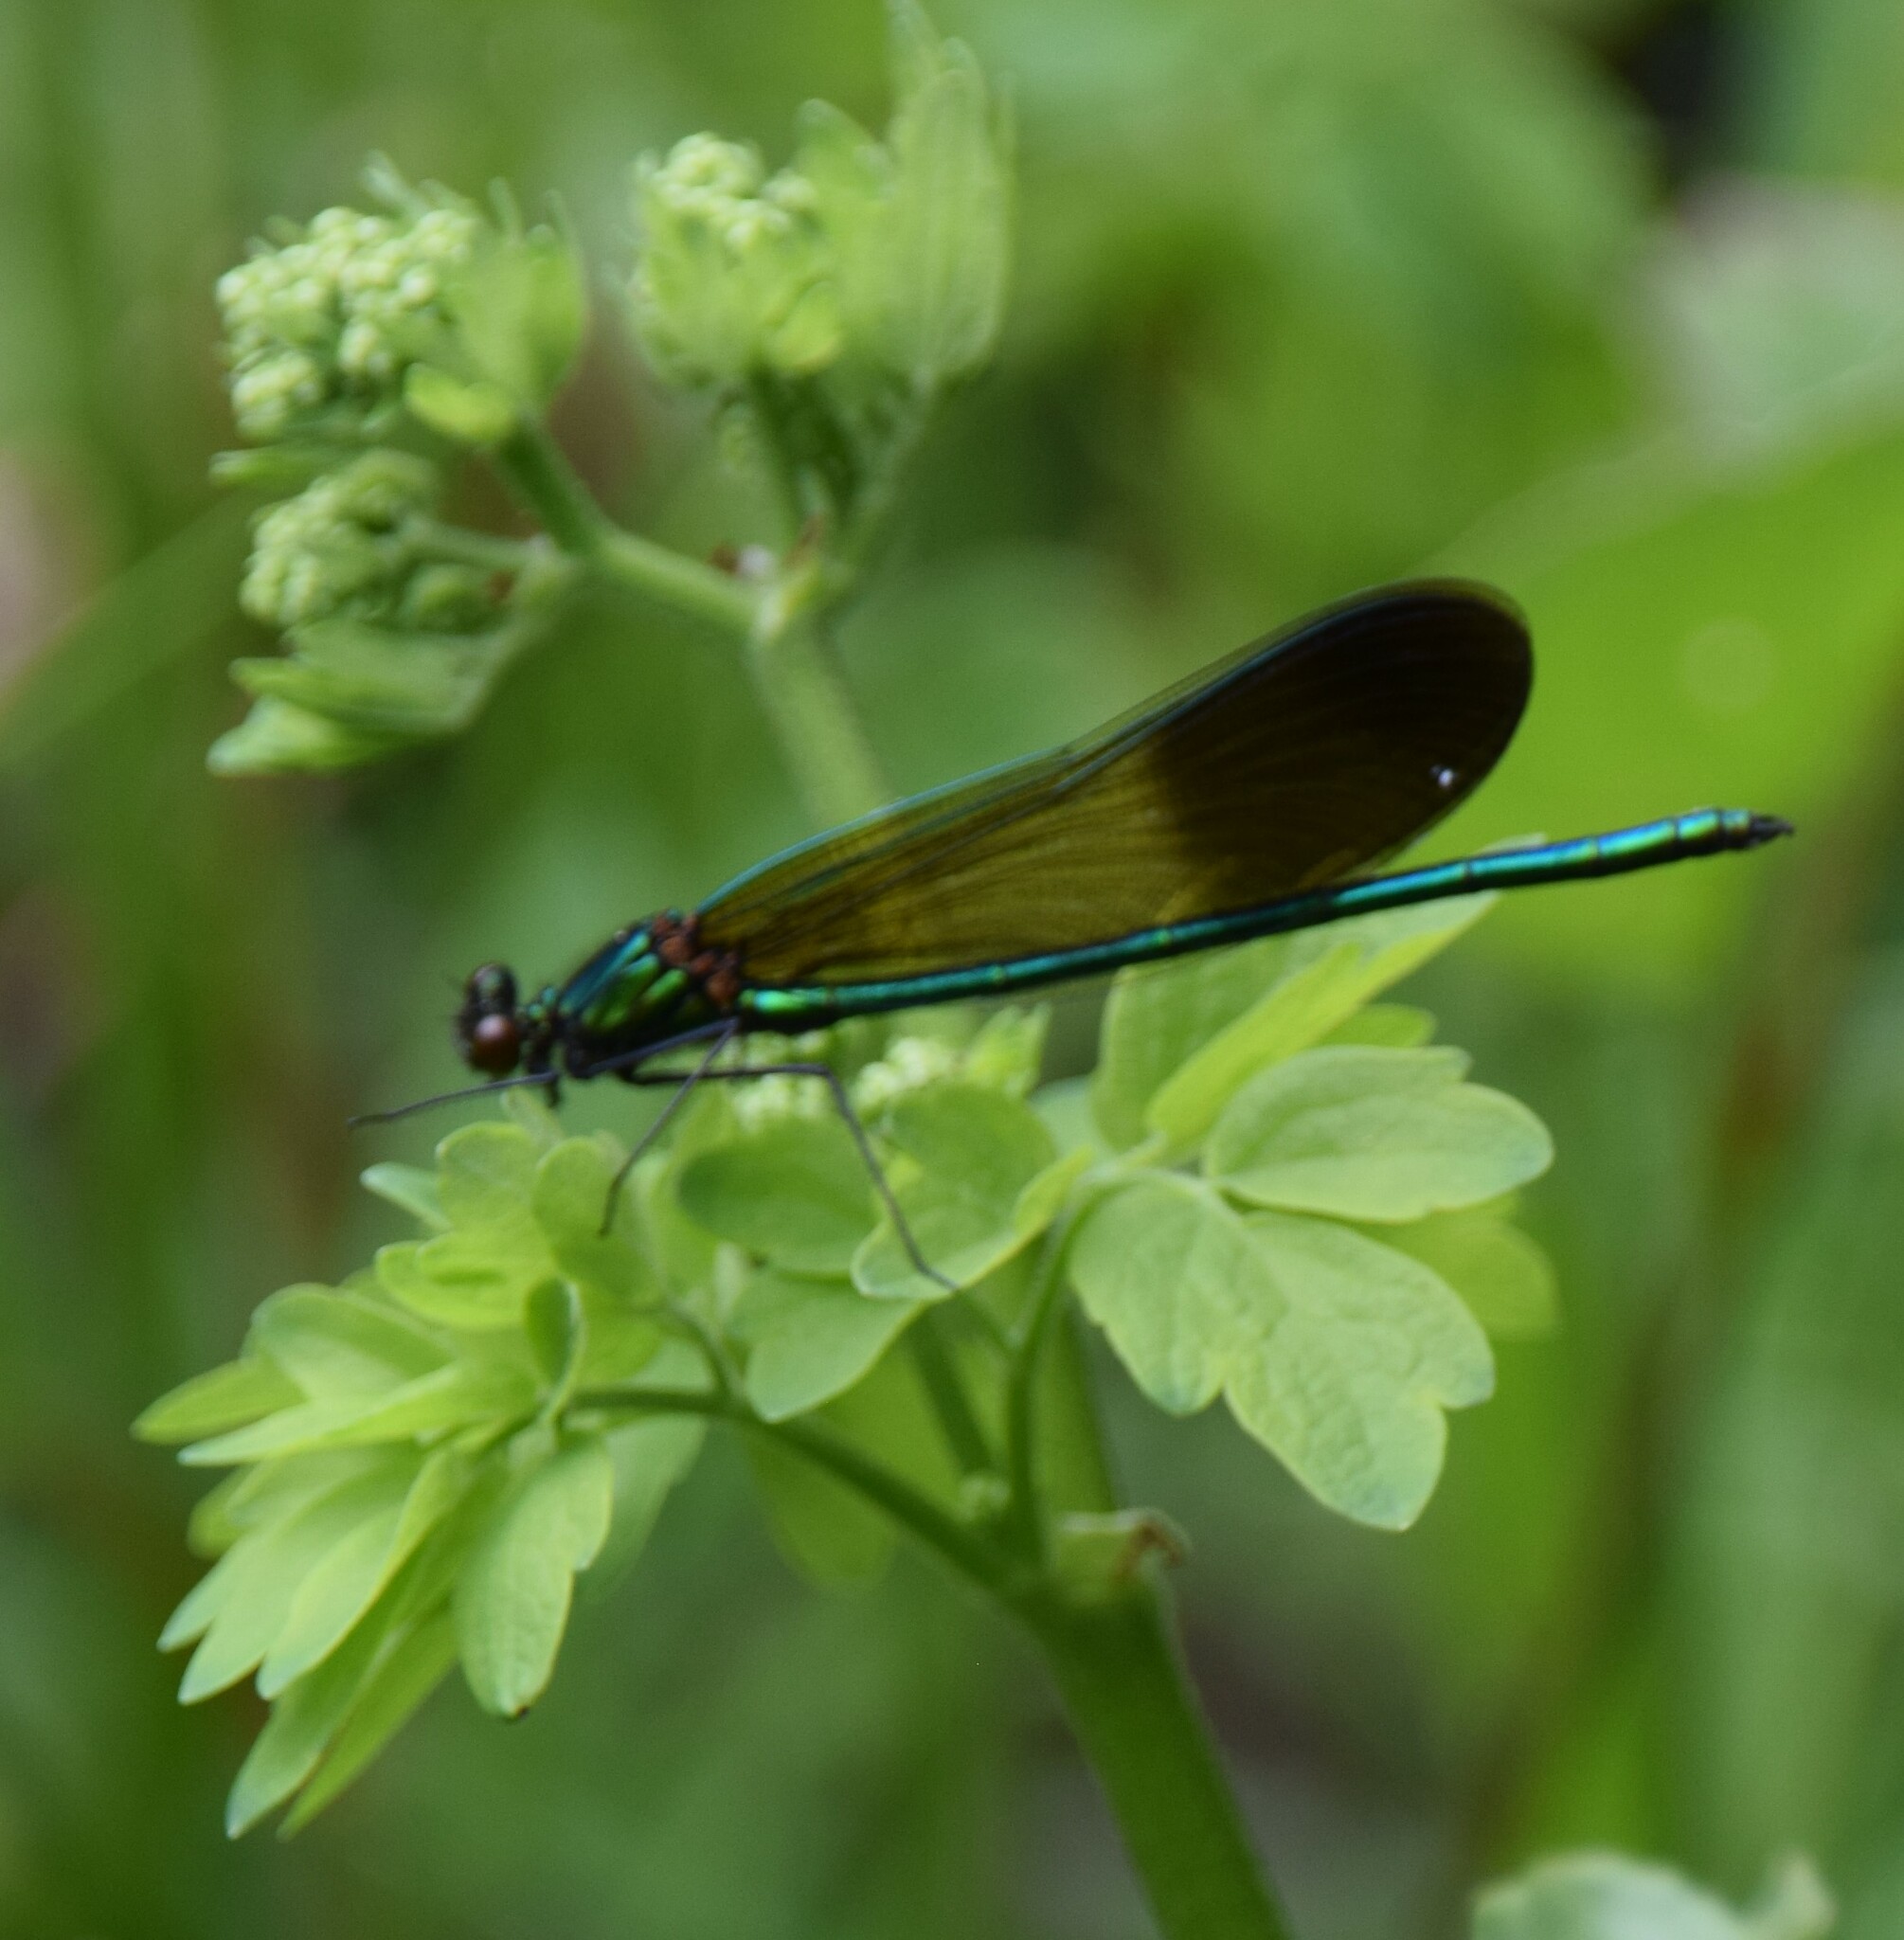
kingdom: Animalia
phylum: Arthropoda
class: Insecta
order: Odonata
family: Calopterygidae
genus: Calopteryx
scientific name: Calopteryx aequabilis
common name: River jewelwing
